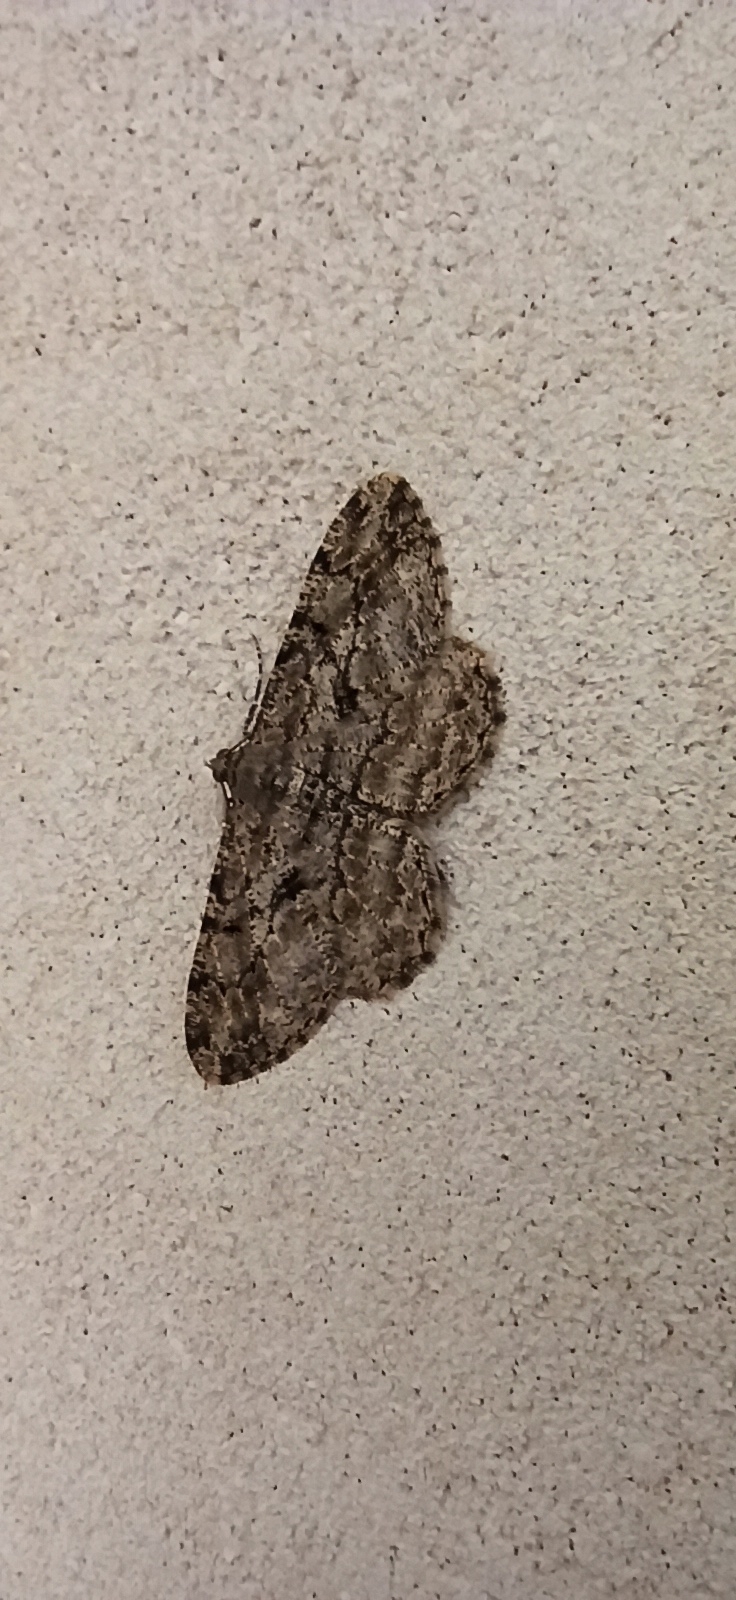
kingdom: Animalia
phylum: Arthropoda
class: Insecta
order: Lepidoptera
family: Geometridae
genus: Peribatodes
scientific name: Peribatodes rhomboidaria
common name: Willow beauty
